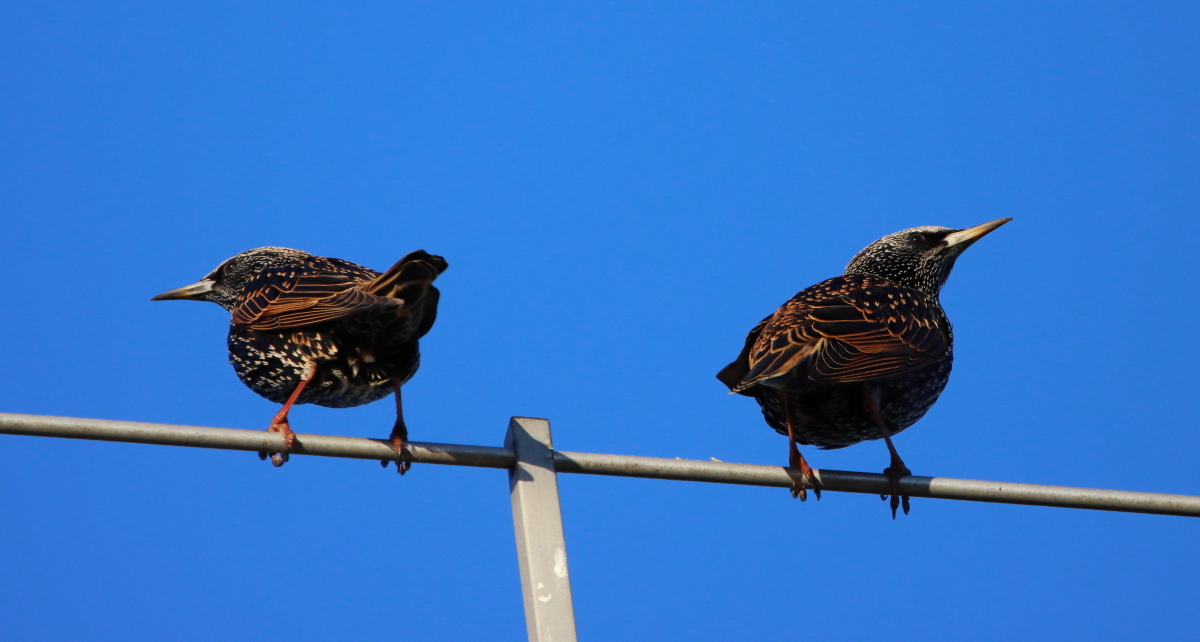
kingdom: Animalia
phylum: Chordata
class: Aves
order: Passeriformes
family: Sturnidae
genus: Sturnus
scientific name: Sturnus vulgaris
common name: Common starling
